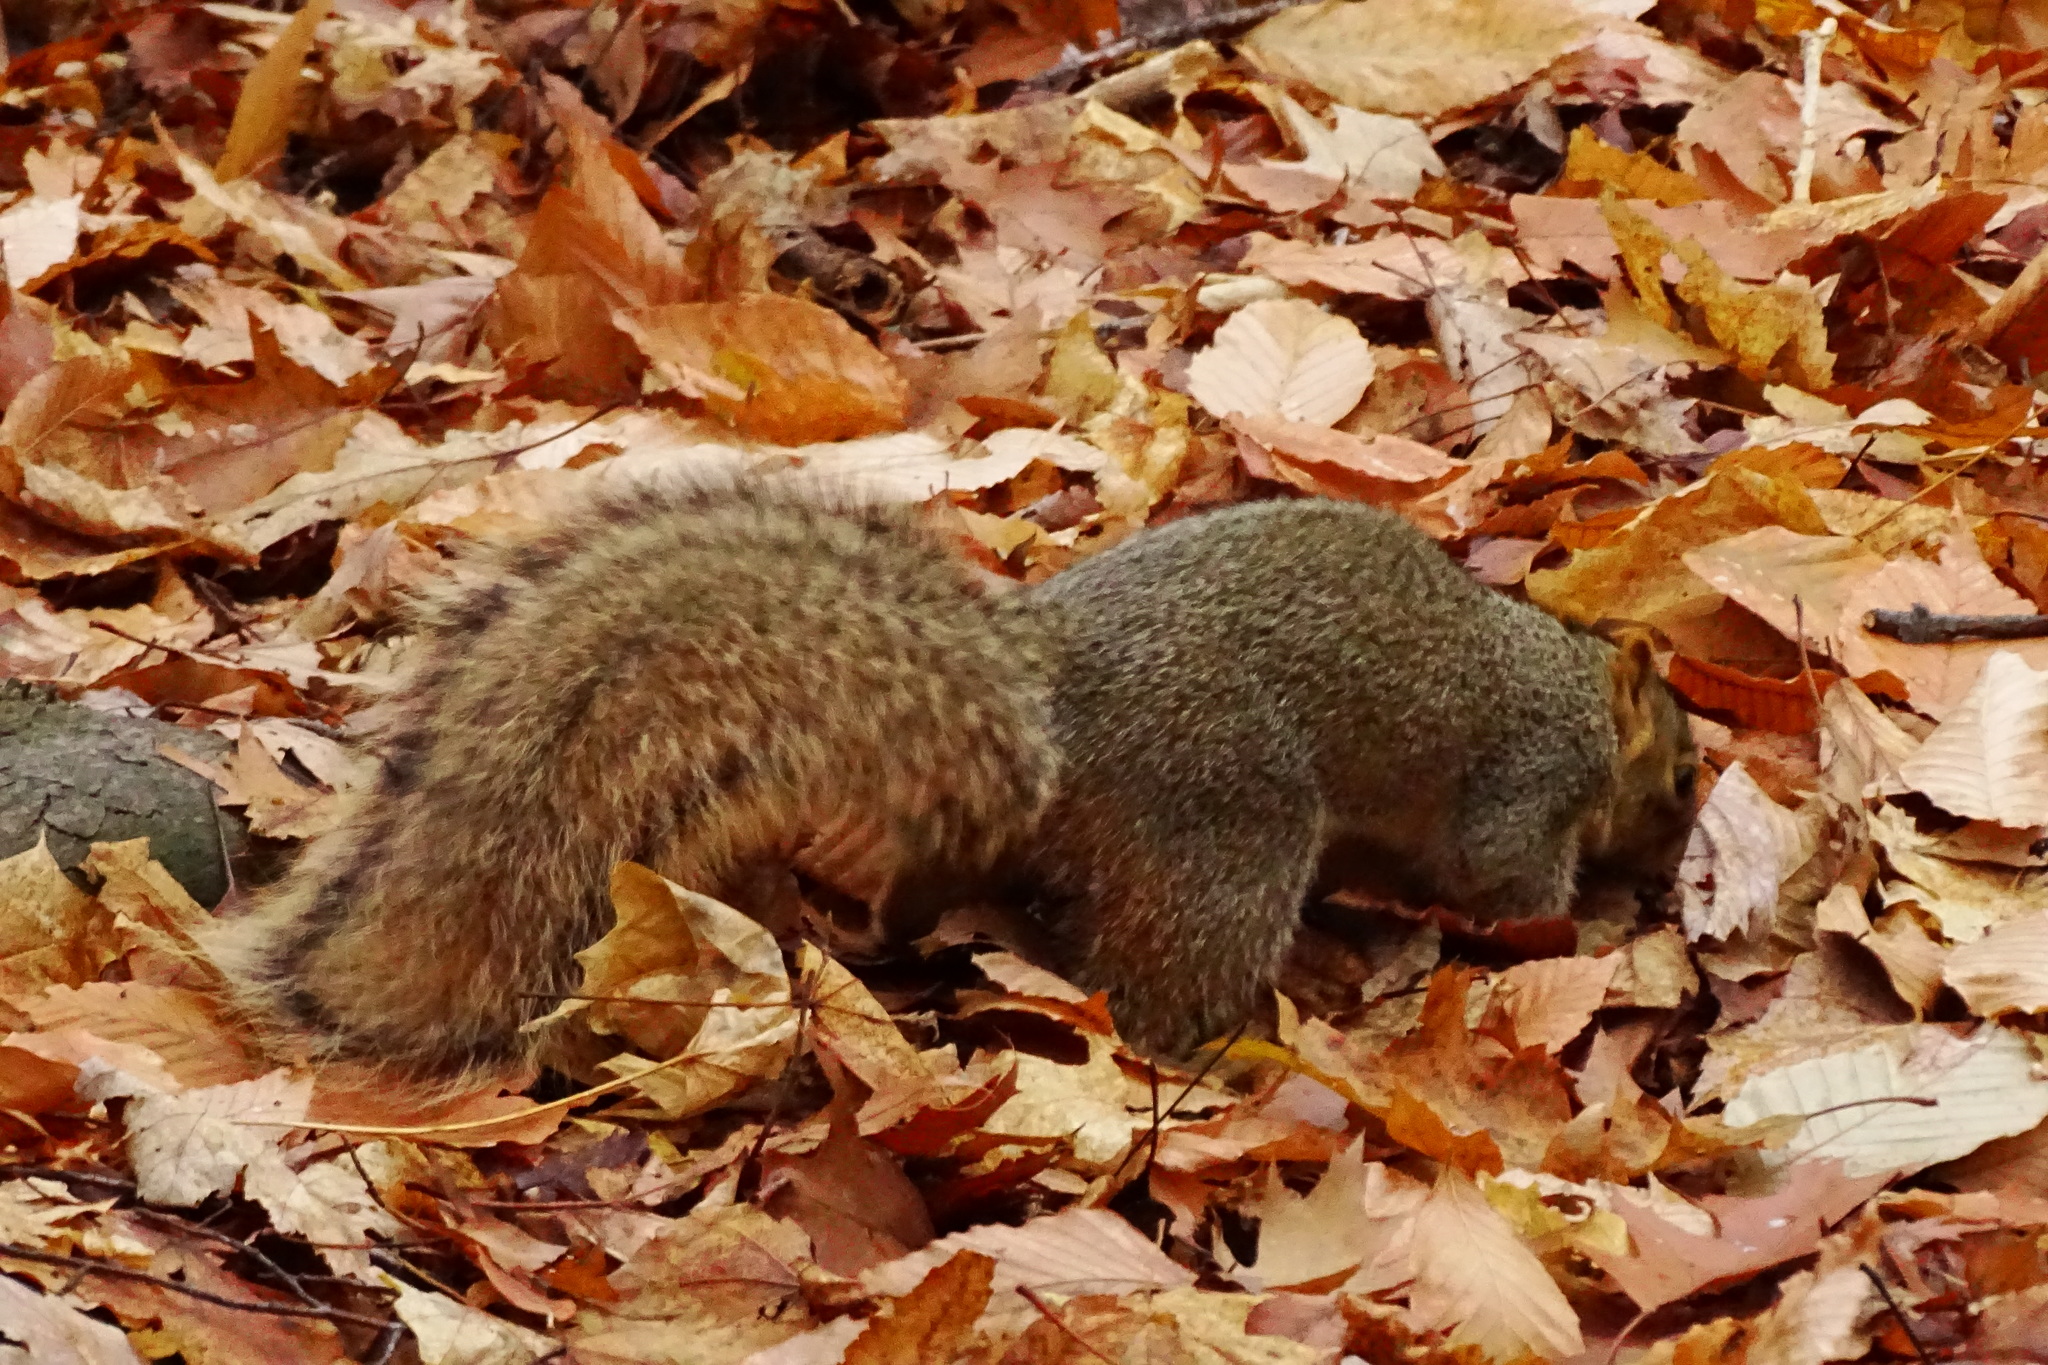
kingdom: Animalia
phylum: Chordata
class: Mammalia
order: Rodentia
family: Sciuridae
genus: Sciurus
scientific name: Sciurus niger
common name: Fox squirrel
